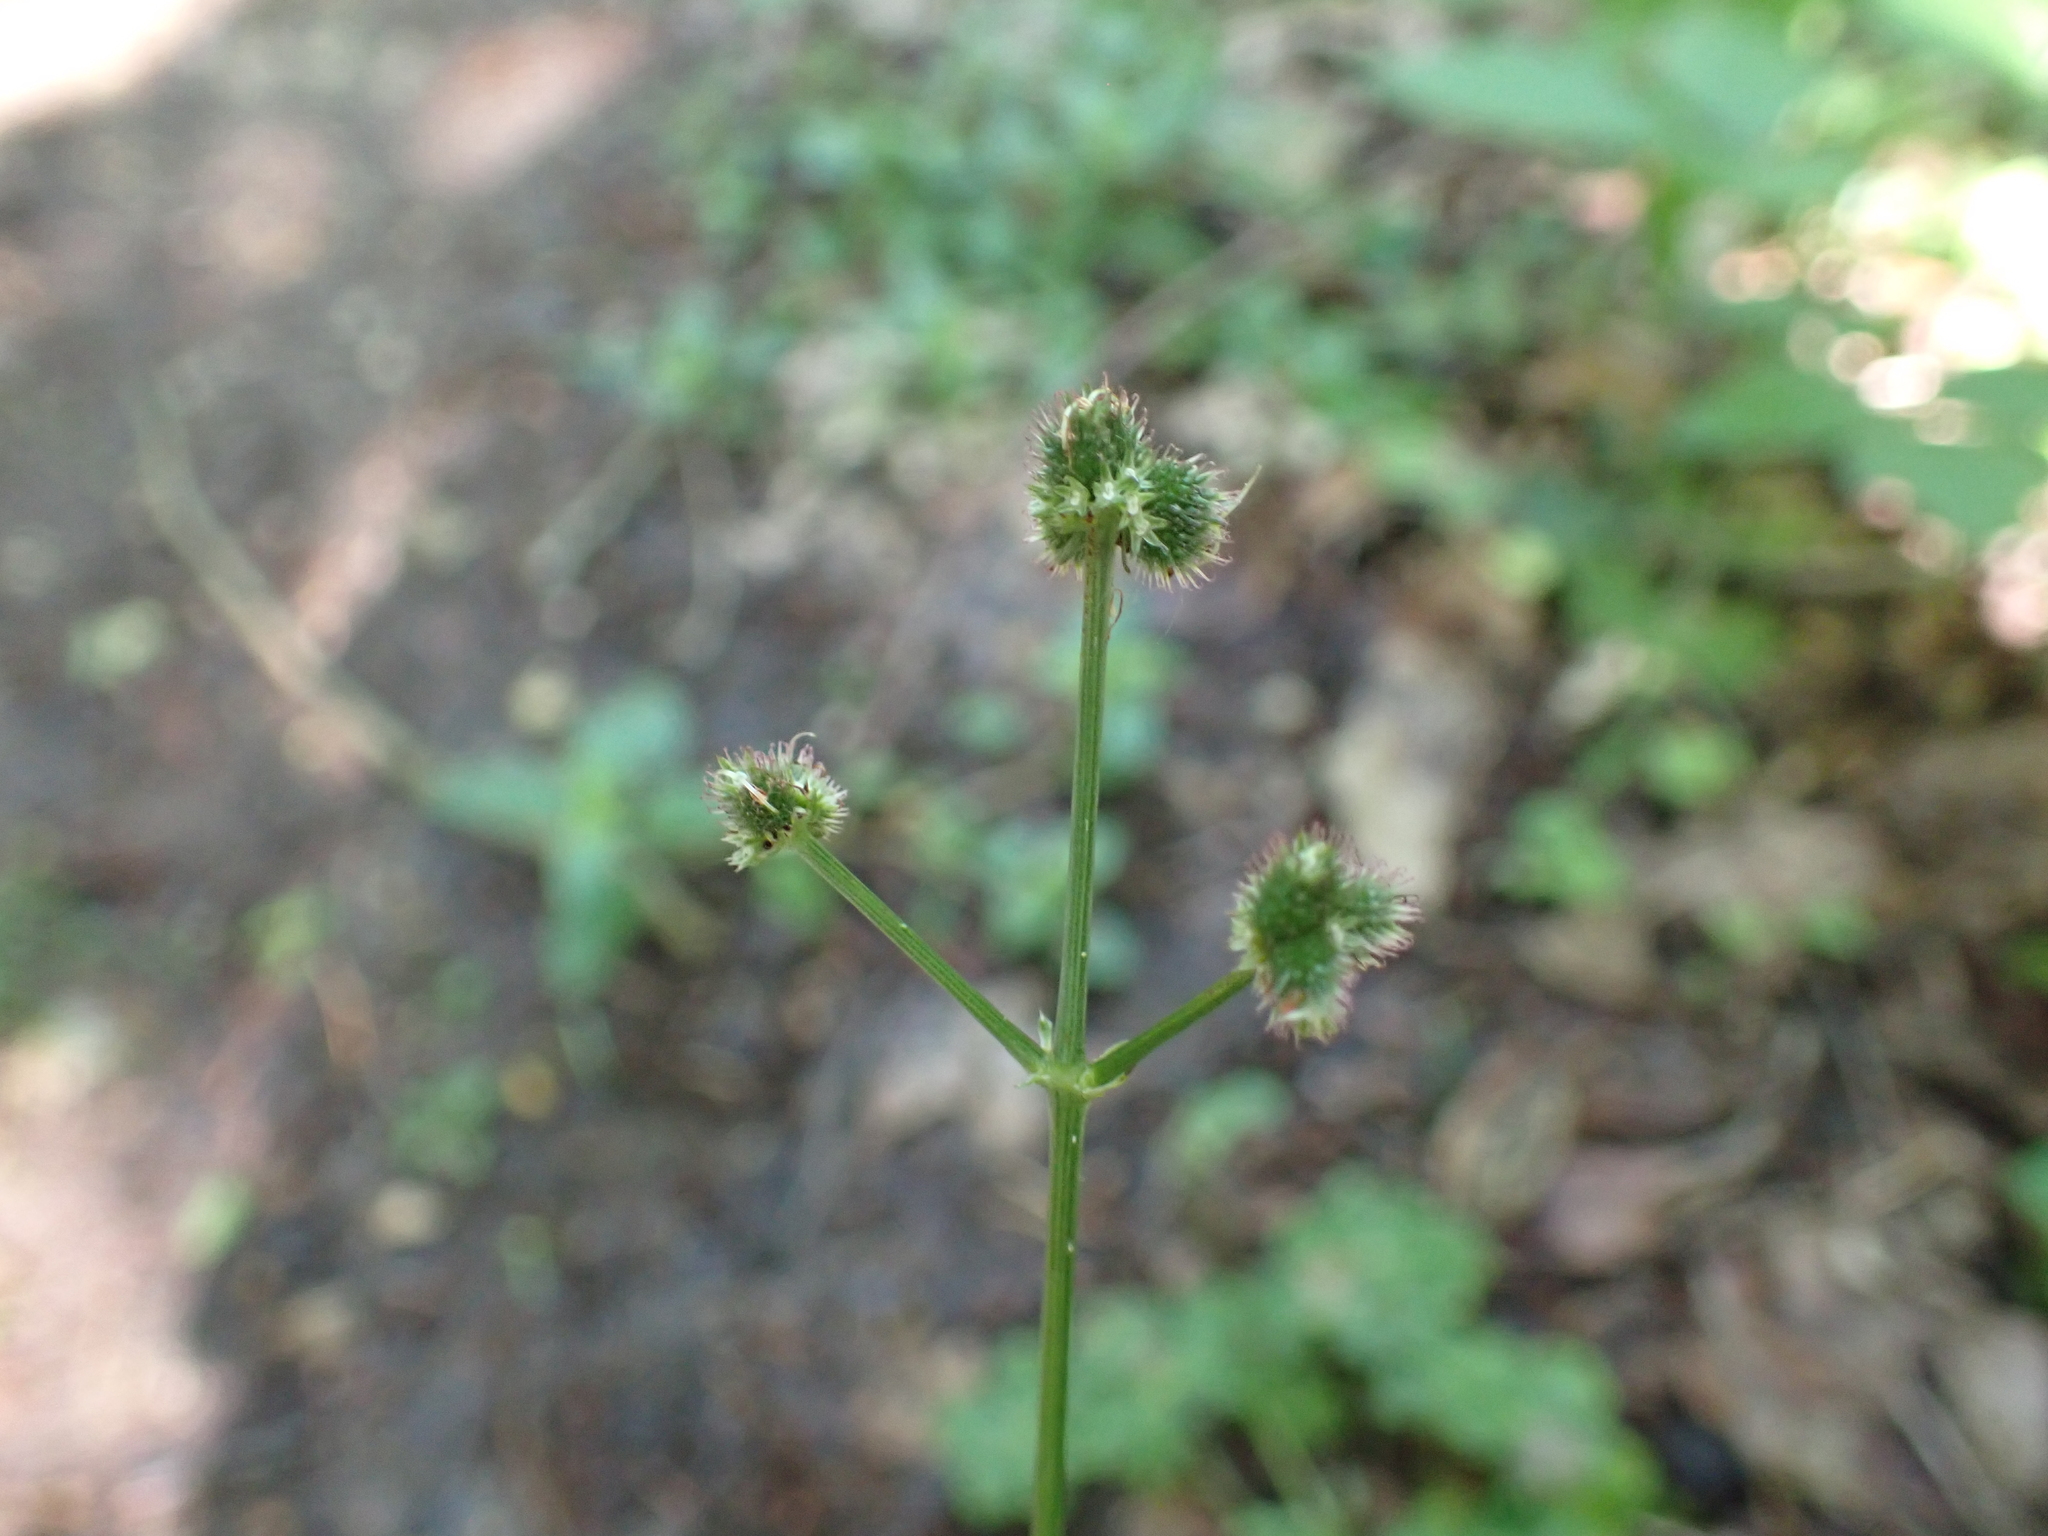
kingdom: Plantae
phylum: Tracheophyta
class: Magnoliopsida
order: Apiales
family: Apiaceae
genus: Sanicula
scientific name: Sanicula europaea
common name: Sanicle
